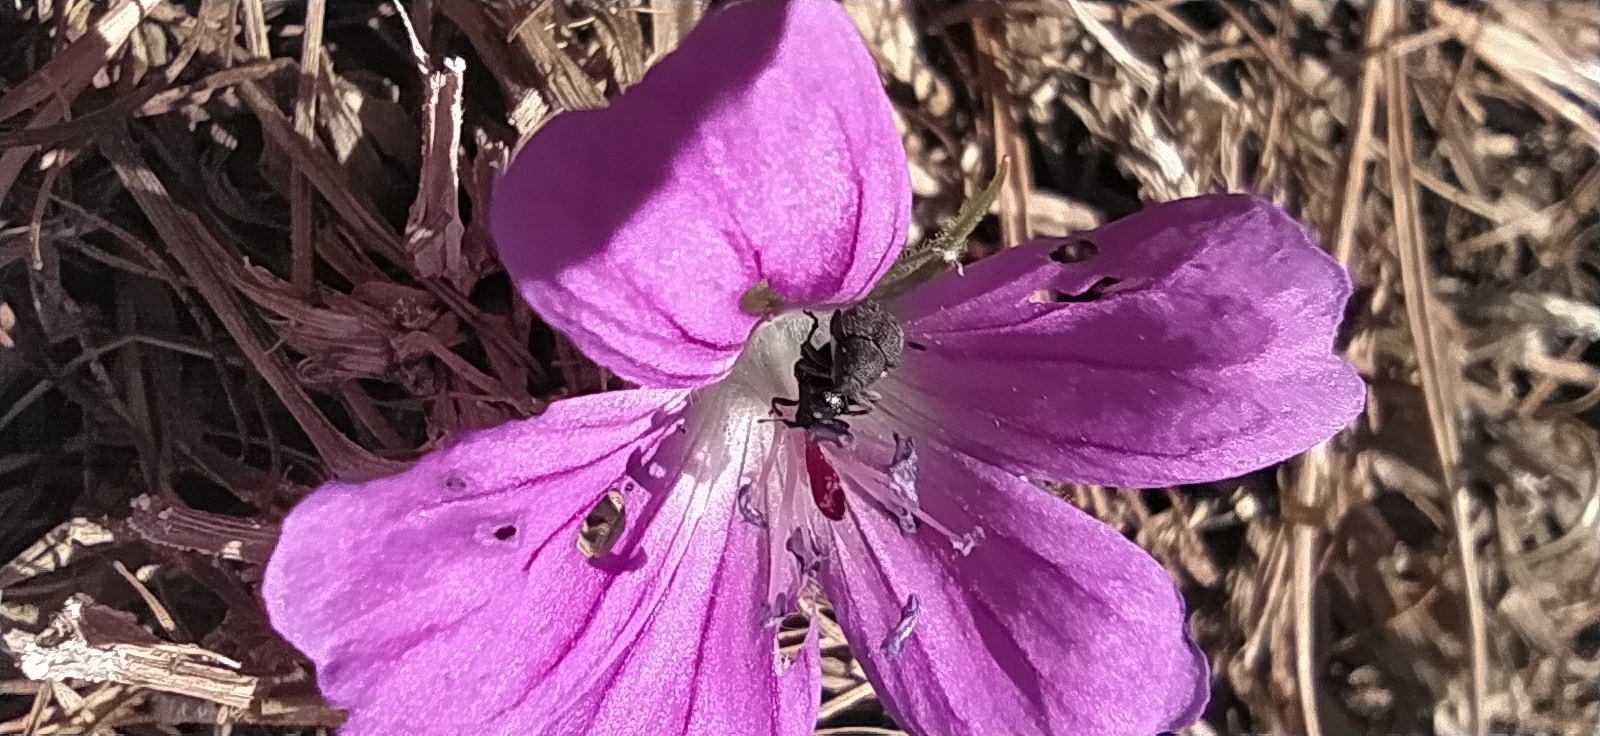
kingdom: Animalia
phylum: Arthropoda
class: Insecta
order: Coleoptera
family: Curculionidae
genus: Zacladus
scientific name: Zacladus geranii
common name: Meadow cranesbill weevil
